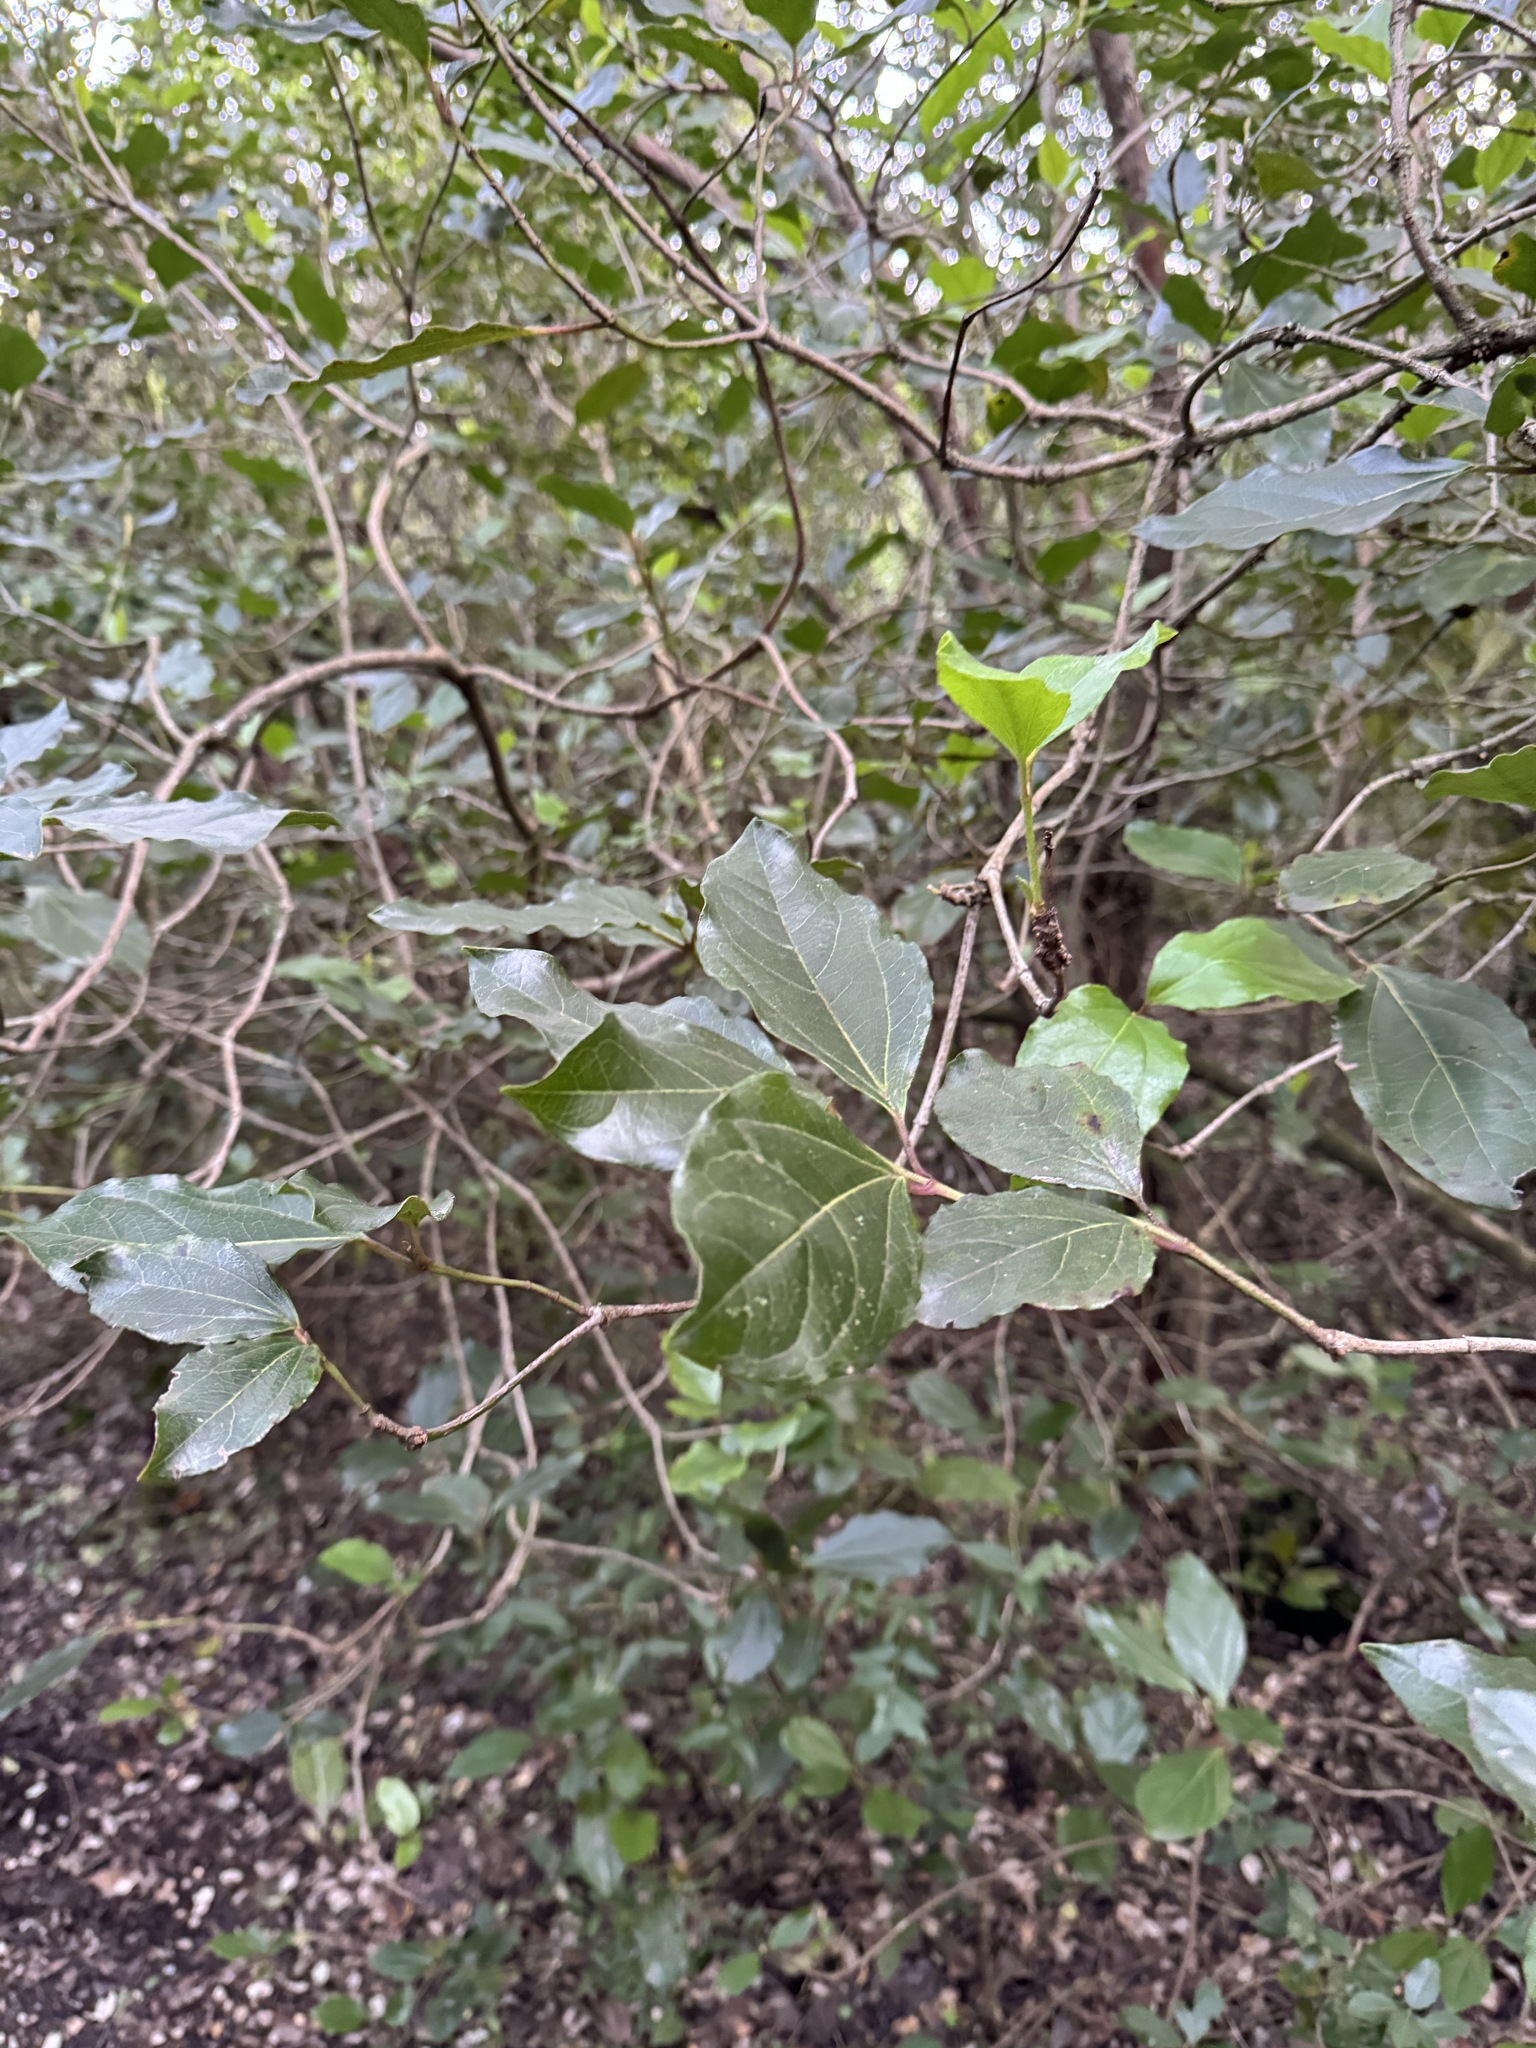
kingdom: Plantae
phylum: Tracheophyta
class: Magnoliopsida
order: Dipsacales
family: Viburnaceae
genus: Viburnum
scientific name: Viburnum tinus
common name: Laurustinus
